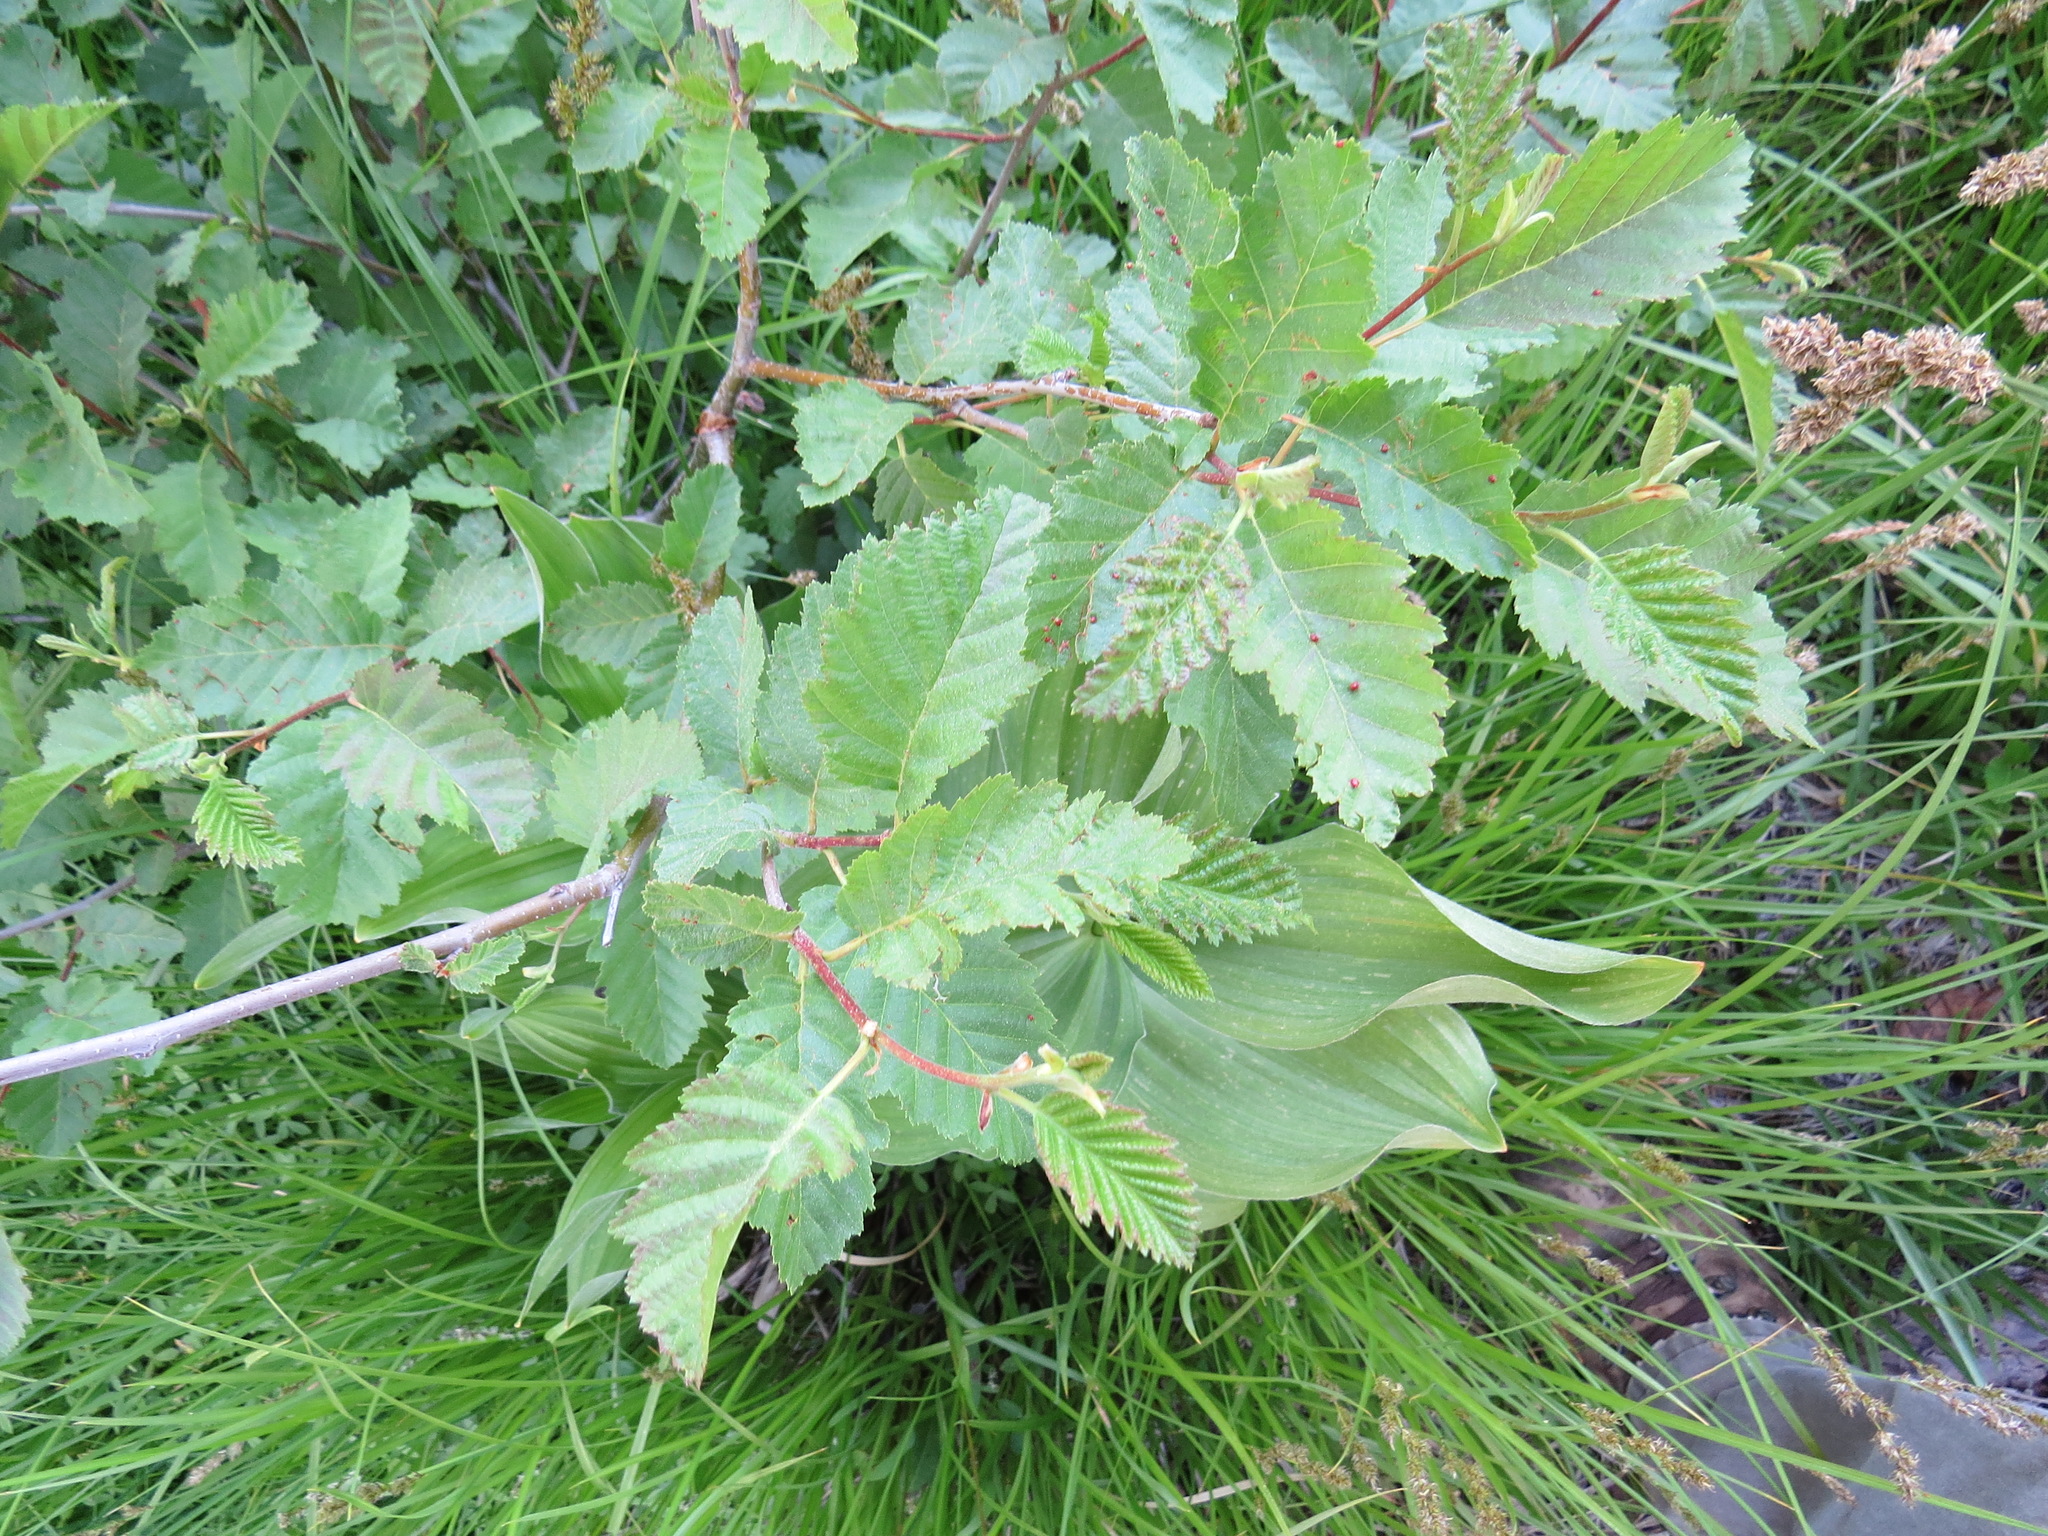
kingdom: Animalia
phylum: Arthropoda
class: Arachnida
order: Trombidiformes
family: Eriophyidae
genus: Eriophyes
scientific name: Eriophyes laevis
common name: Alder leaf gall mite
